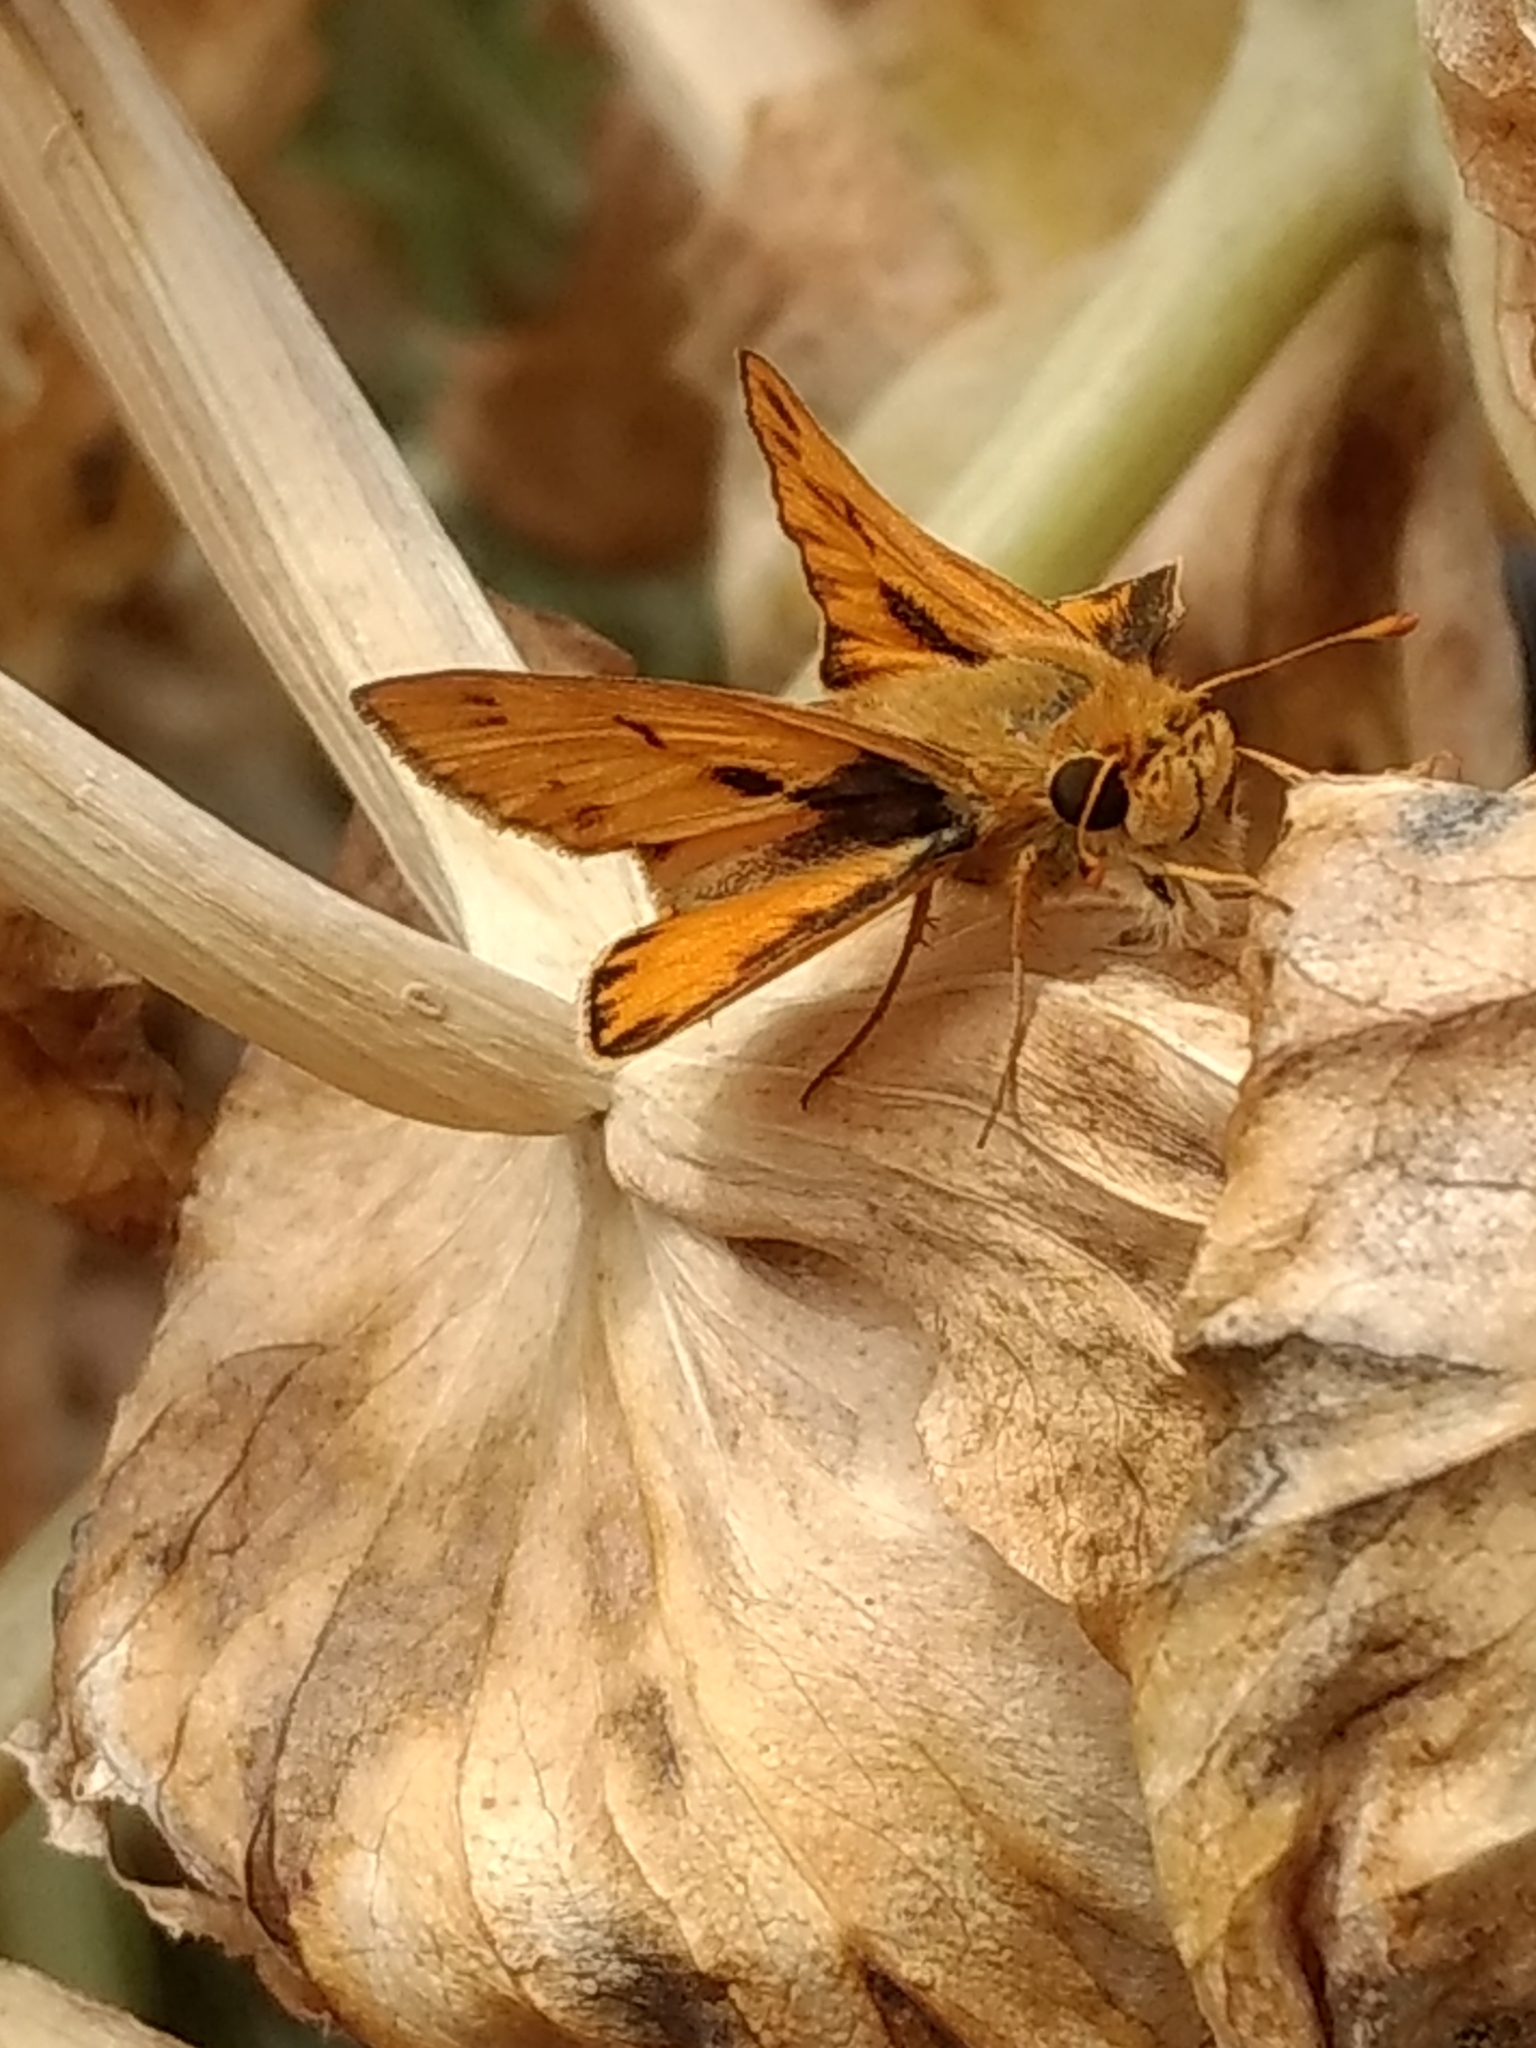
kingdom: Animalia
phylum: Arthropoda
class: Insecta
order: Lepidoptera
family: Hesperiidae
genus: Hylephila
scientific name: Hylephila phyleus
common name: Fiery skipper
